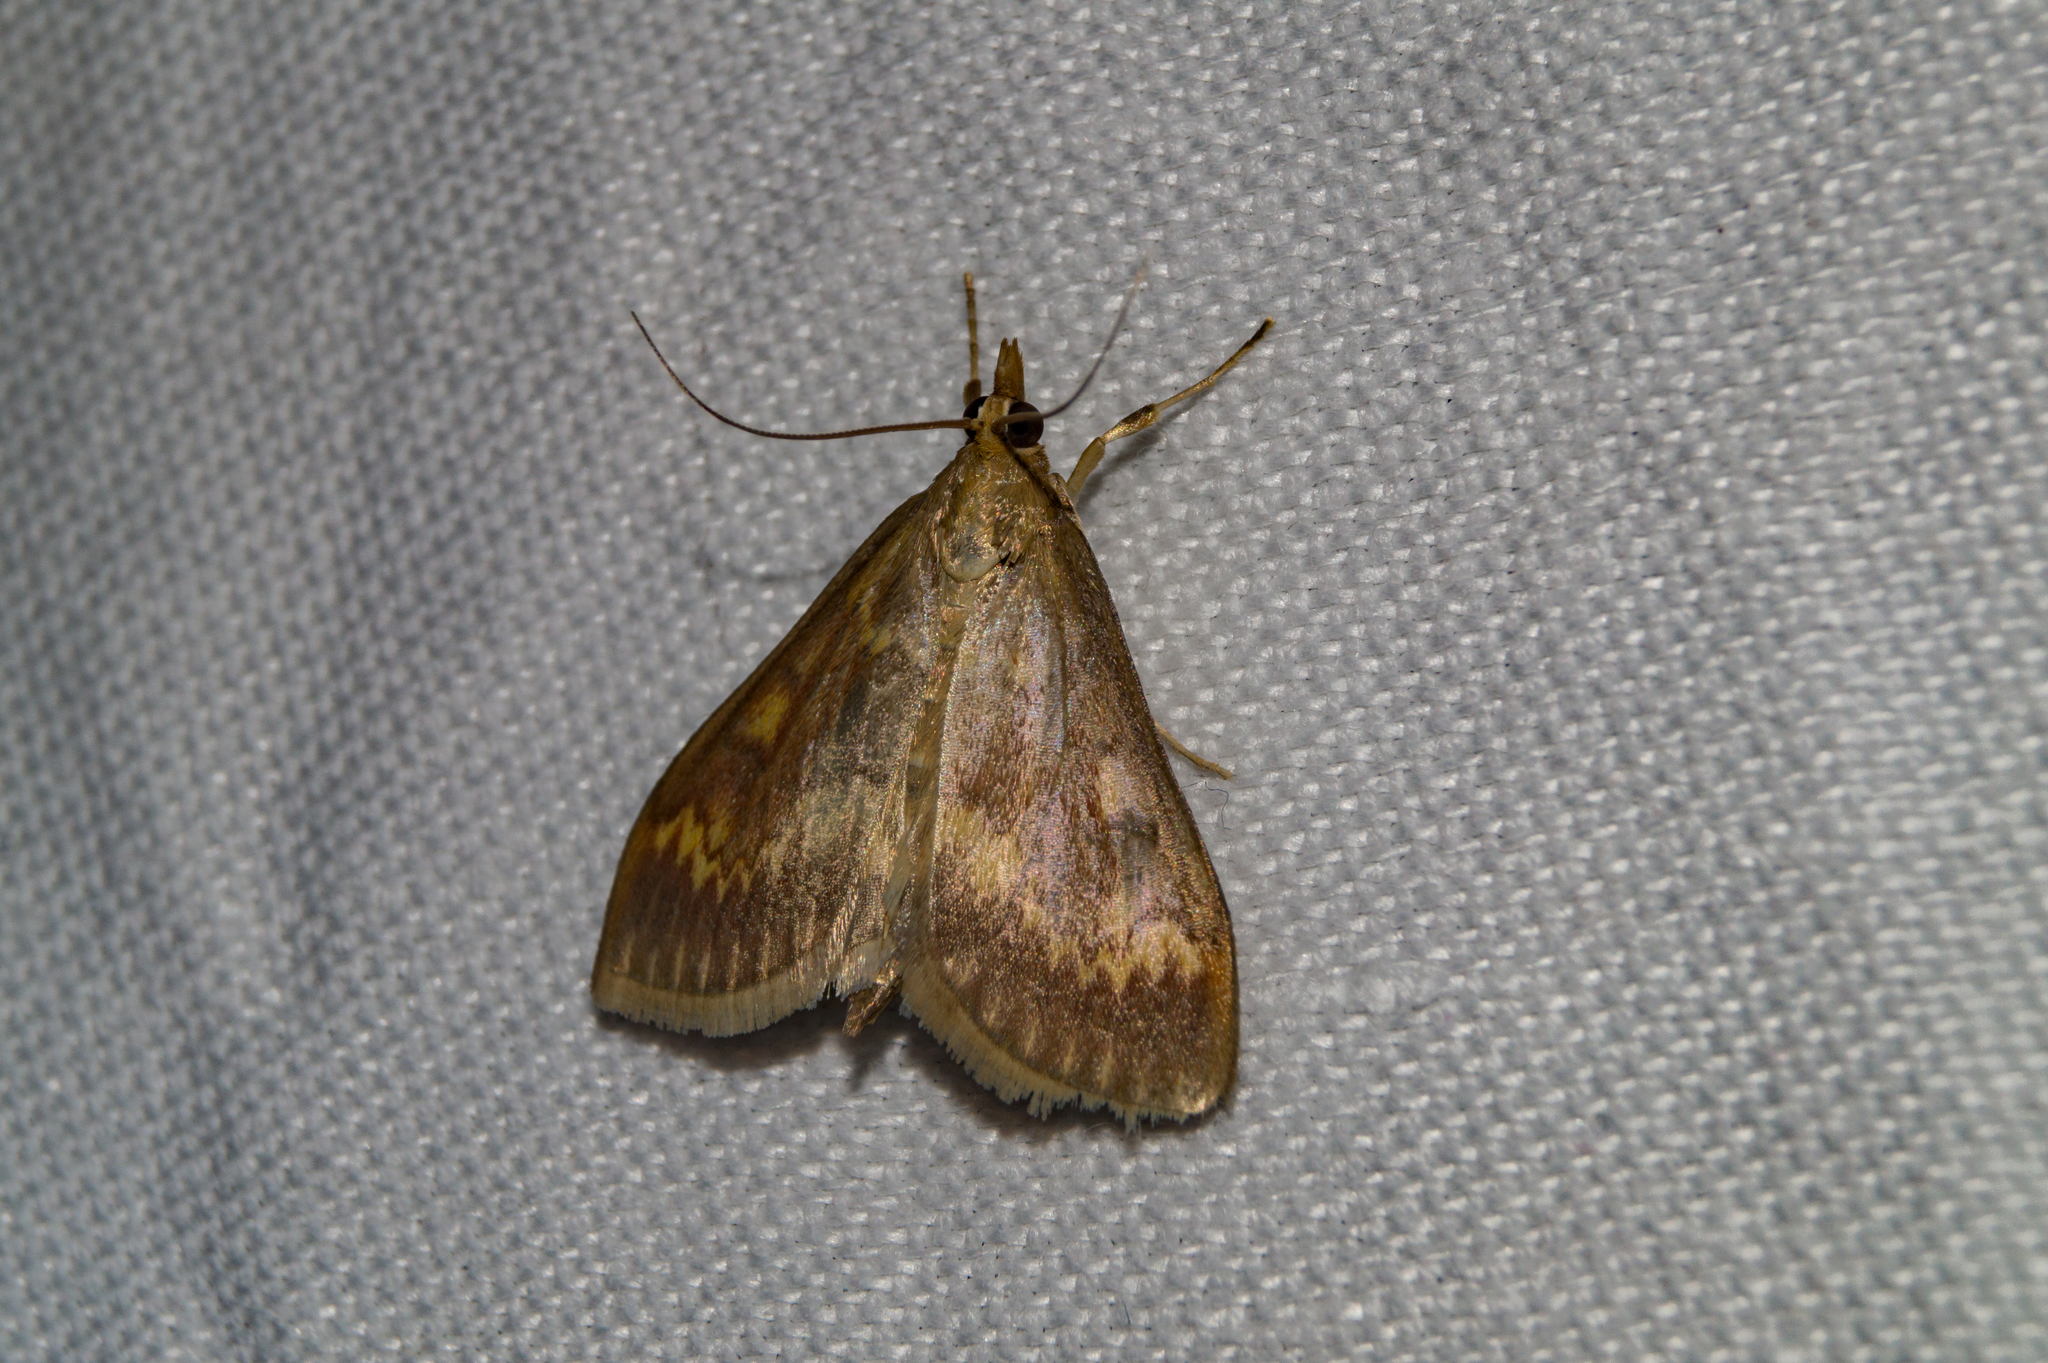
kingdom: Animalia
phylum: Arthropoda
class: Insecta
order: Lepidoptera
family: Crambidae
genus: Ostrinia
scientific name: Ostrinia nubilalis
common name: European corn borer
